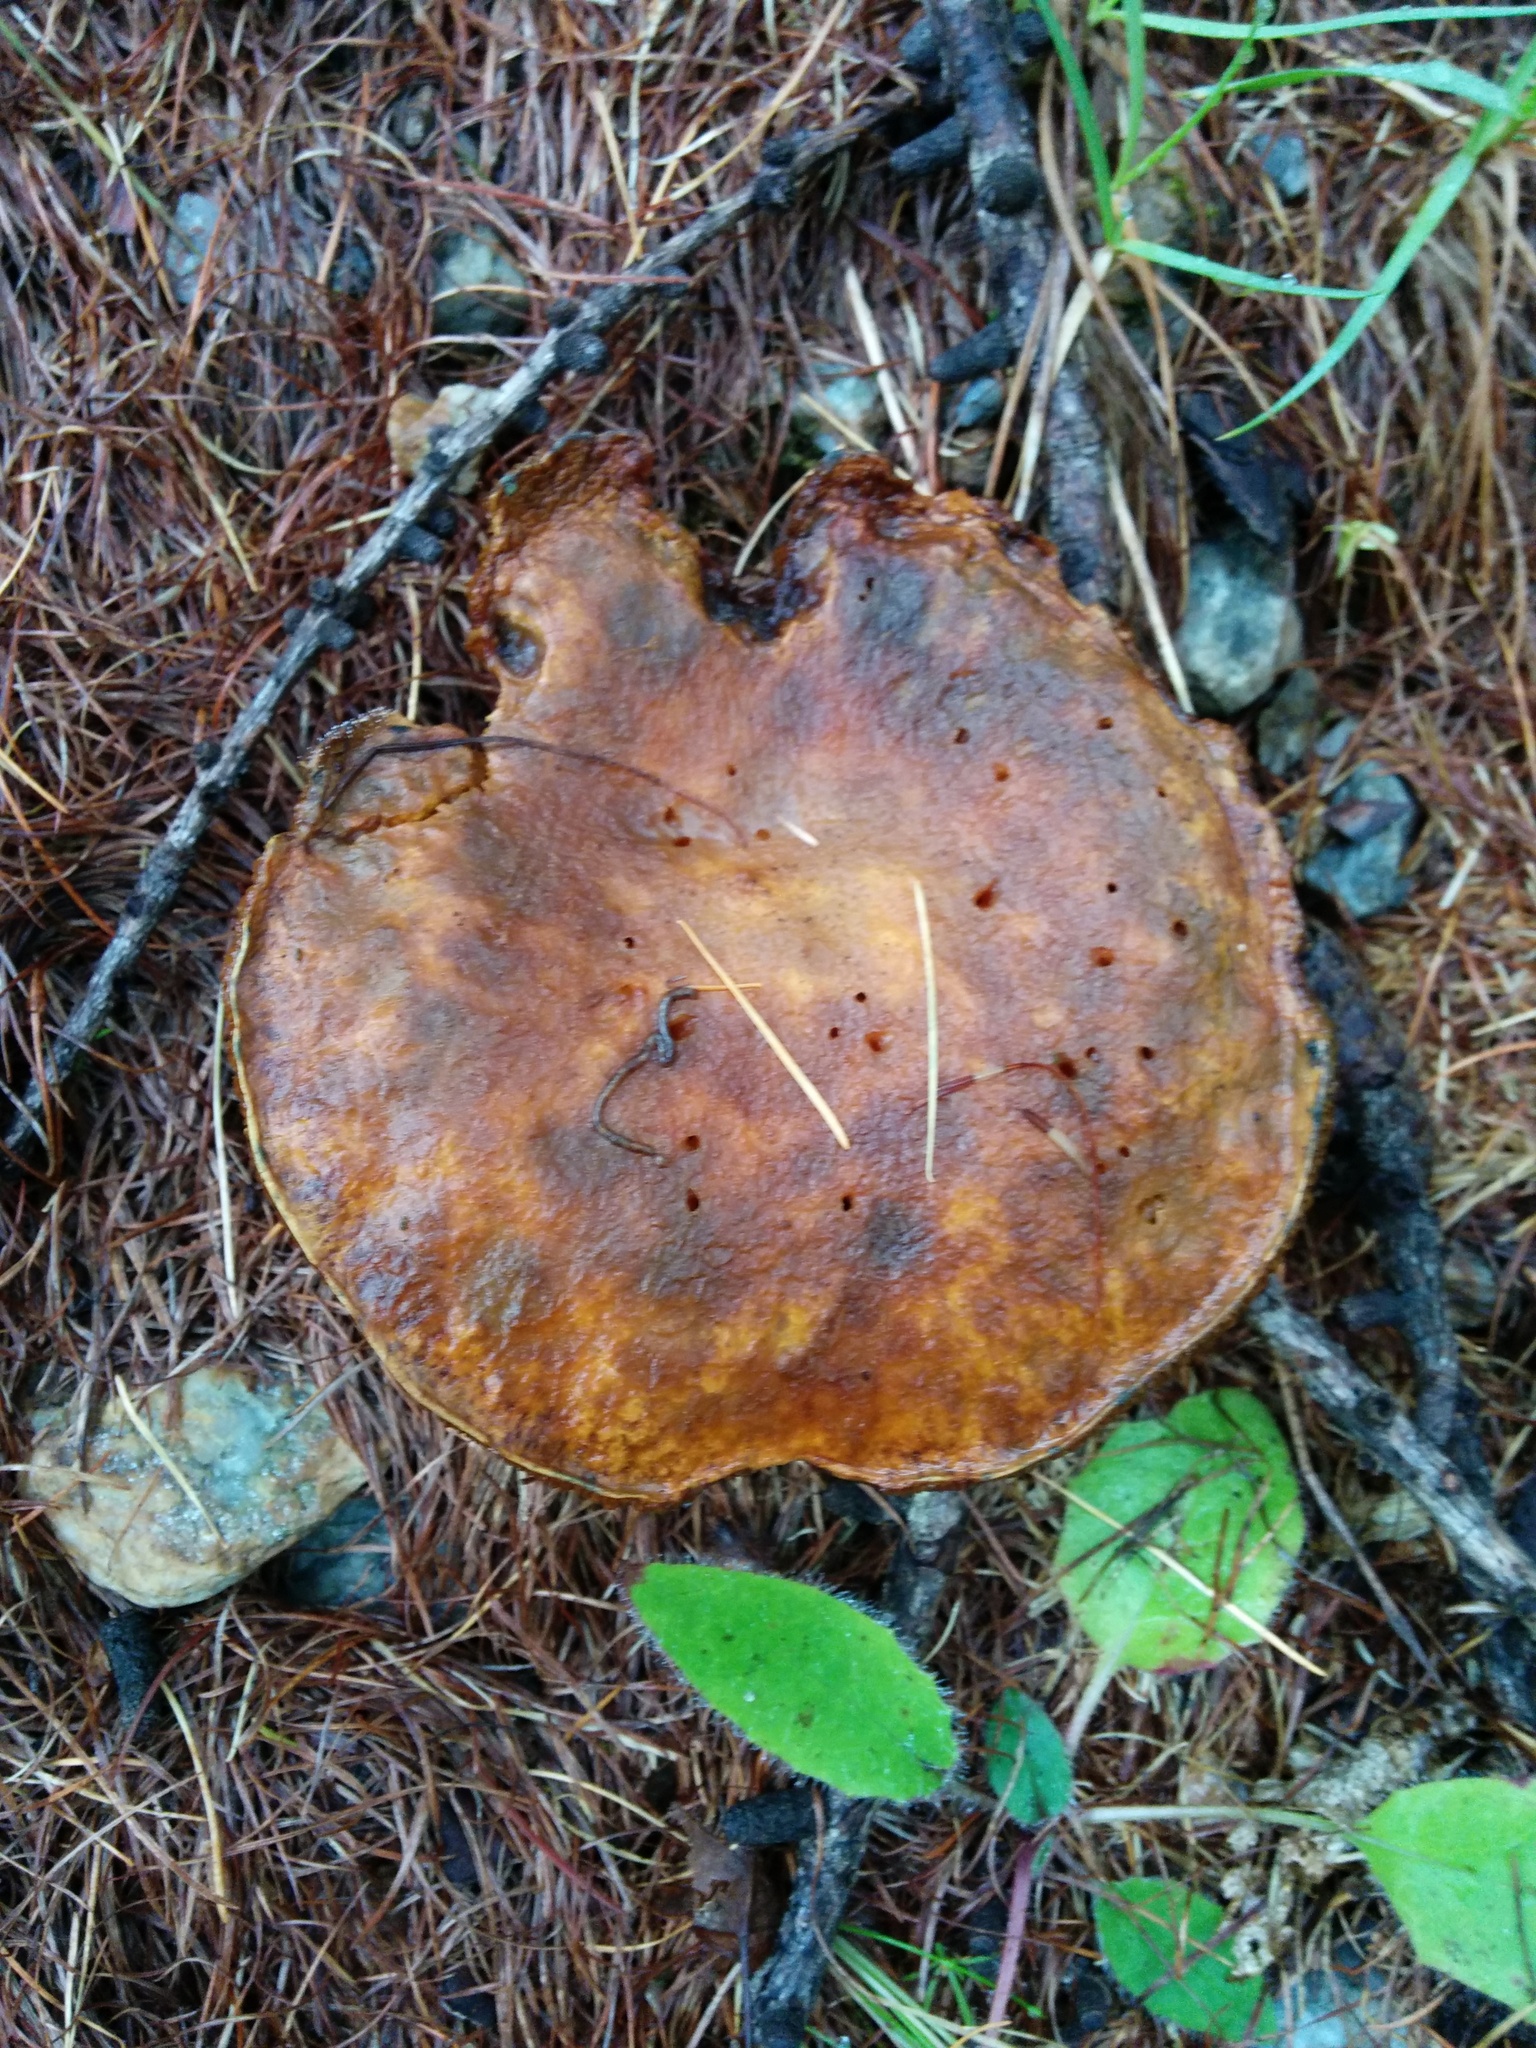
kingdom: Fungi
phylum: Basidiomycota
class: Agaricomycetes
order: Boletales
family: Suillaceae
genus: Suillus
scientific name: Suillus cavipes
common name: Hollow bolete
